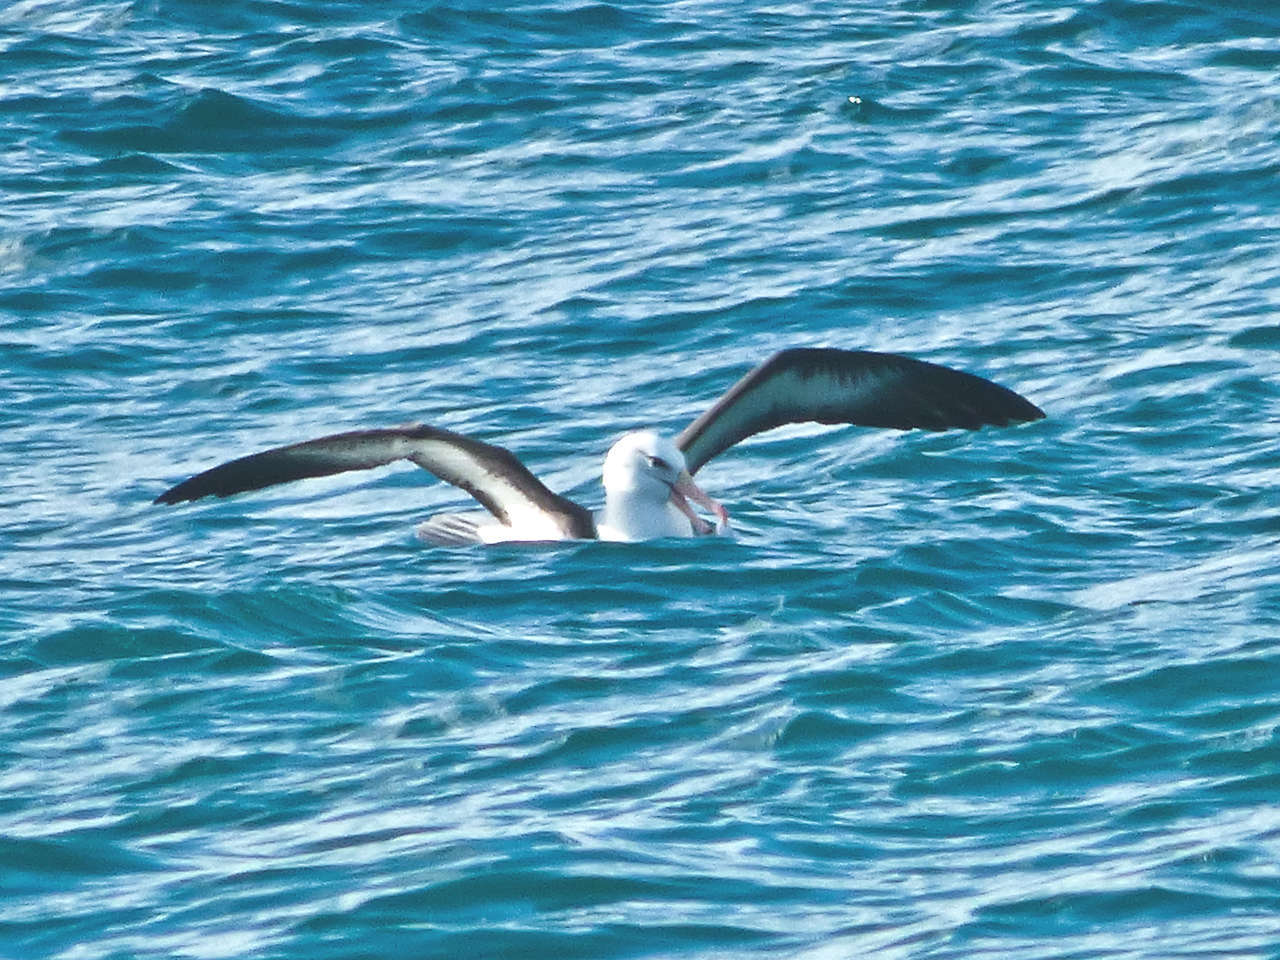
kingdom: Animalia
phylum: Chordata
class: Aves
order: Procellariiformes
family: Diomedeidae
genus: Thalassarche
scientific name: Thalassarche melanophris
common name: Black-browed albatross
